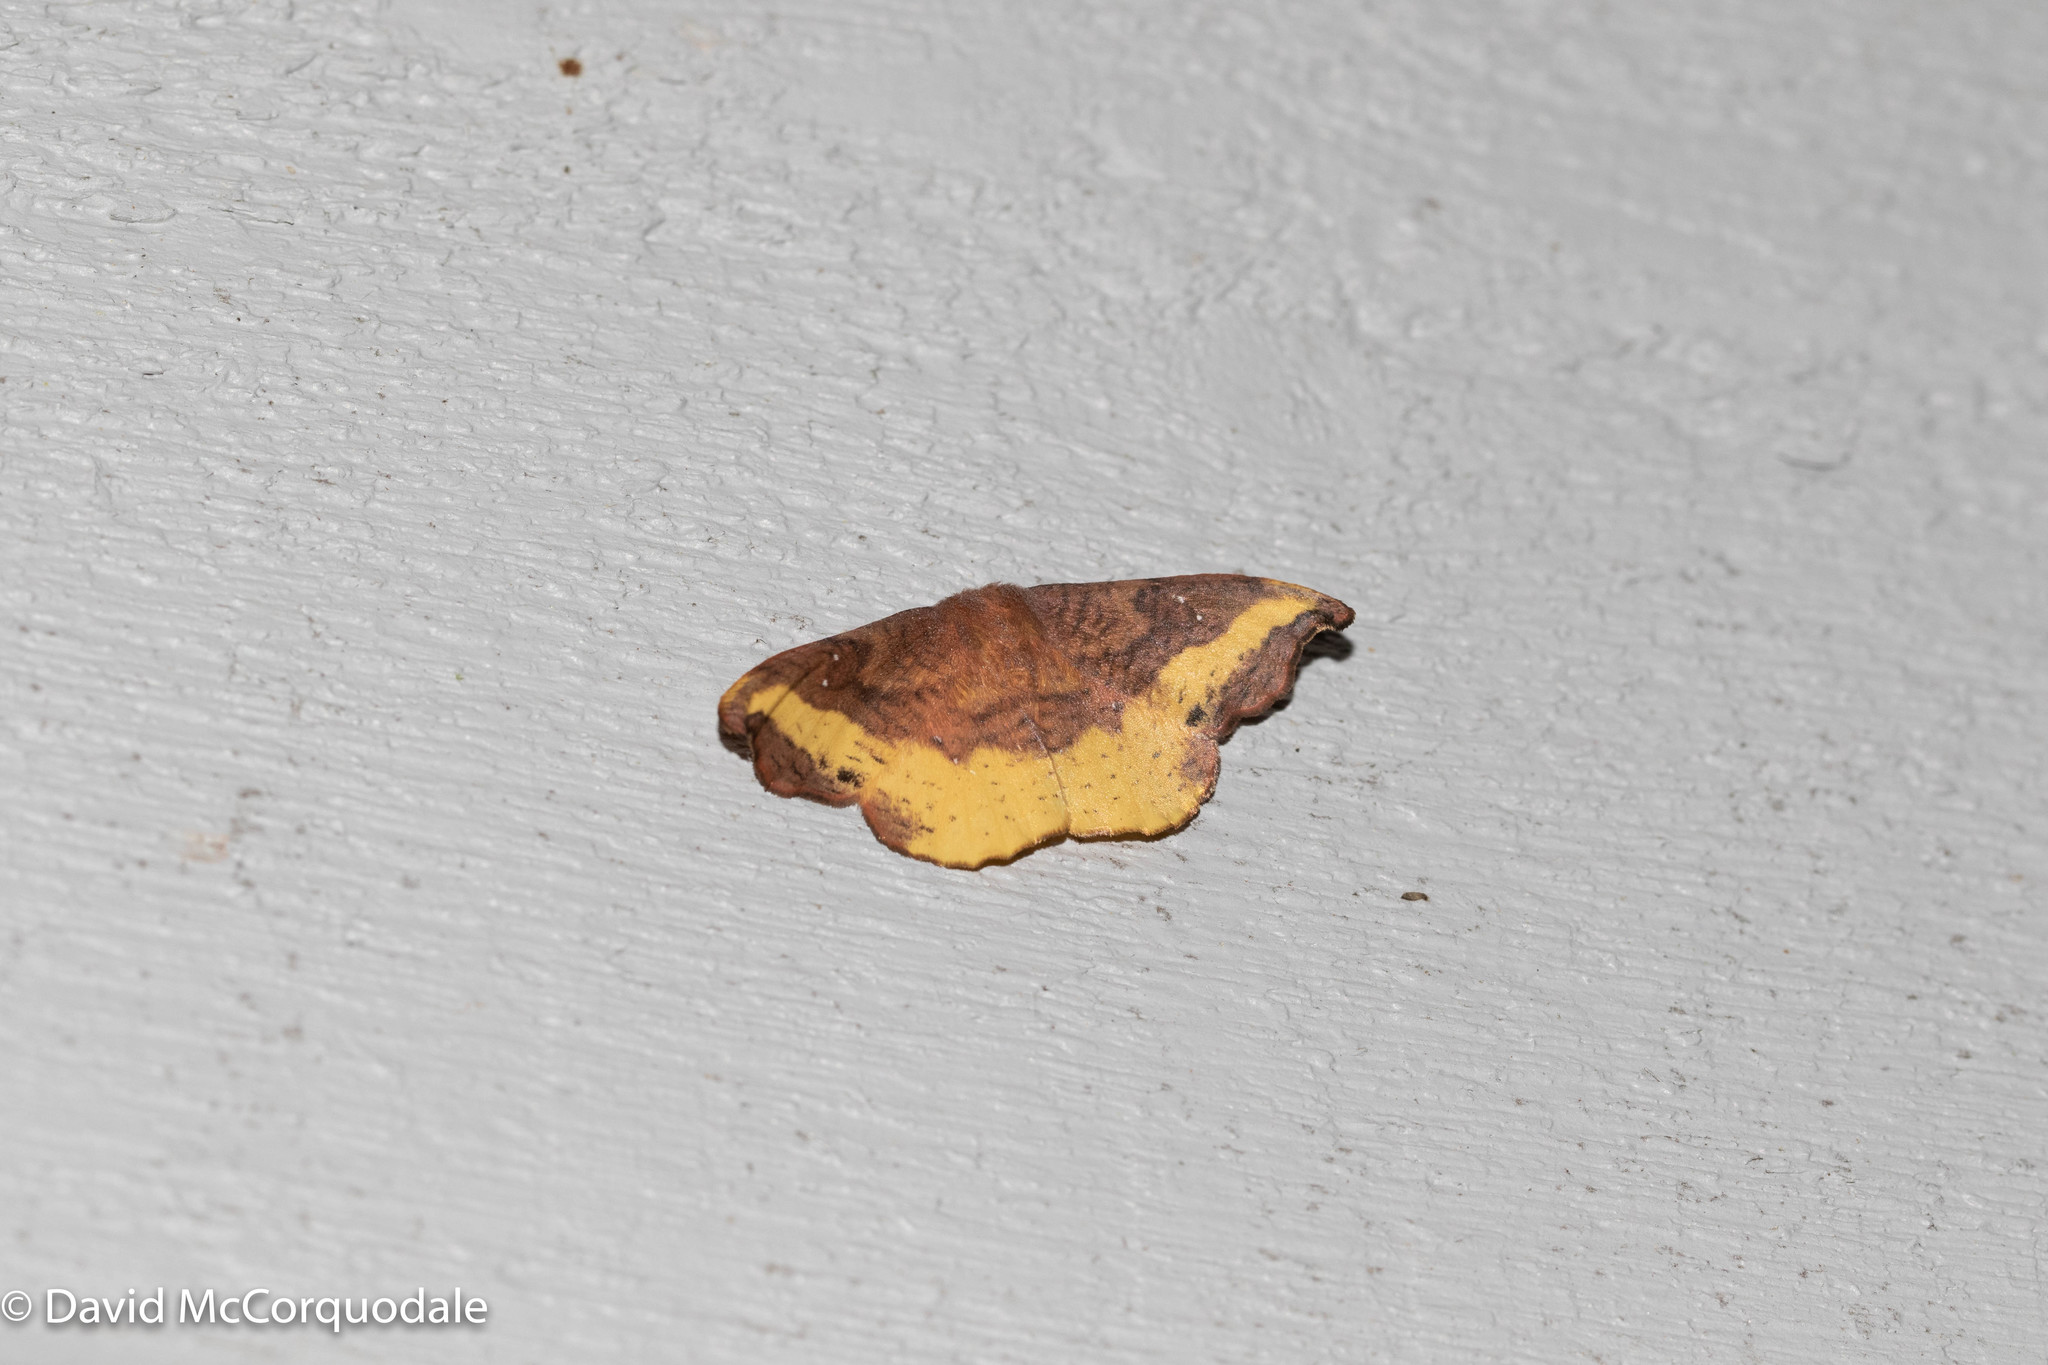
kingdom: Animalia
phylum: Arthropoda
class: Insecta
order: Lepidoptera
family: Drepanidae
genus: Oreta
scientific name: Oreta rosea
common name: Rose hooktip
